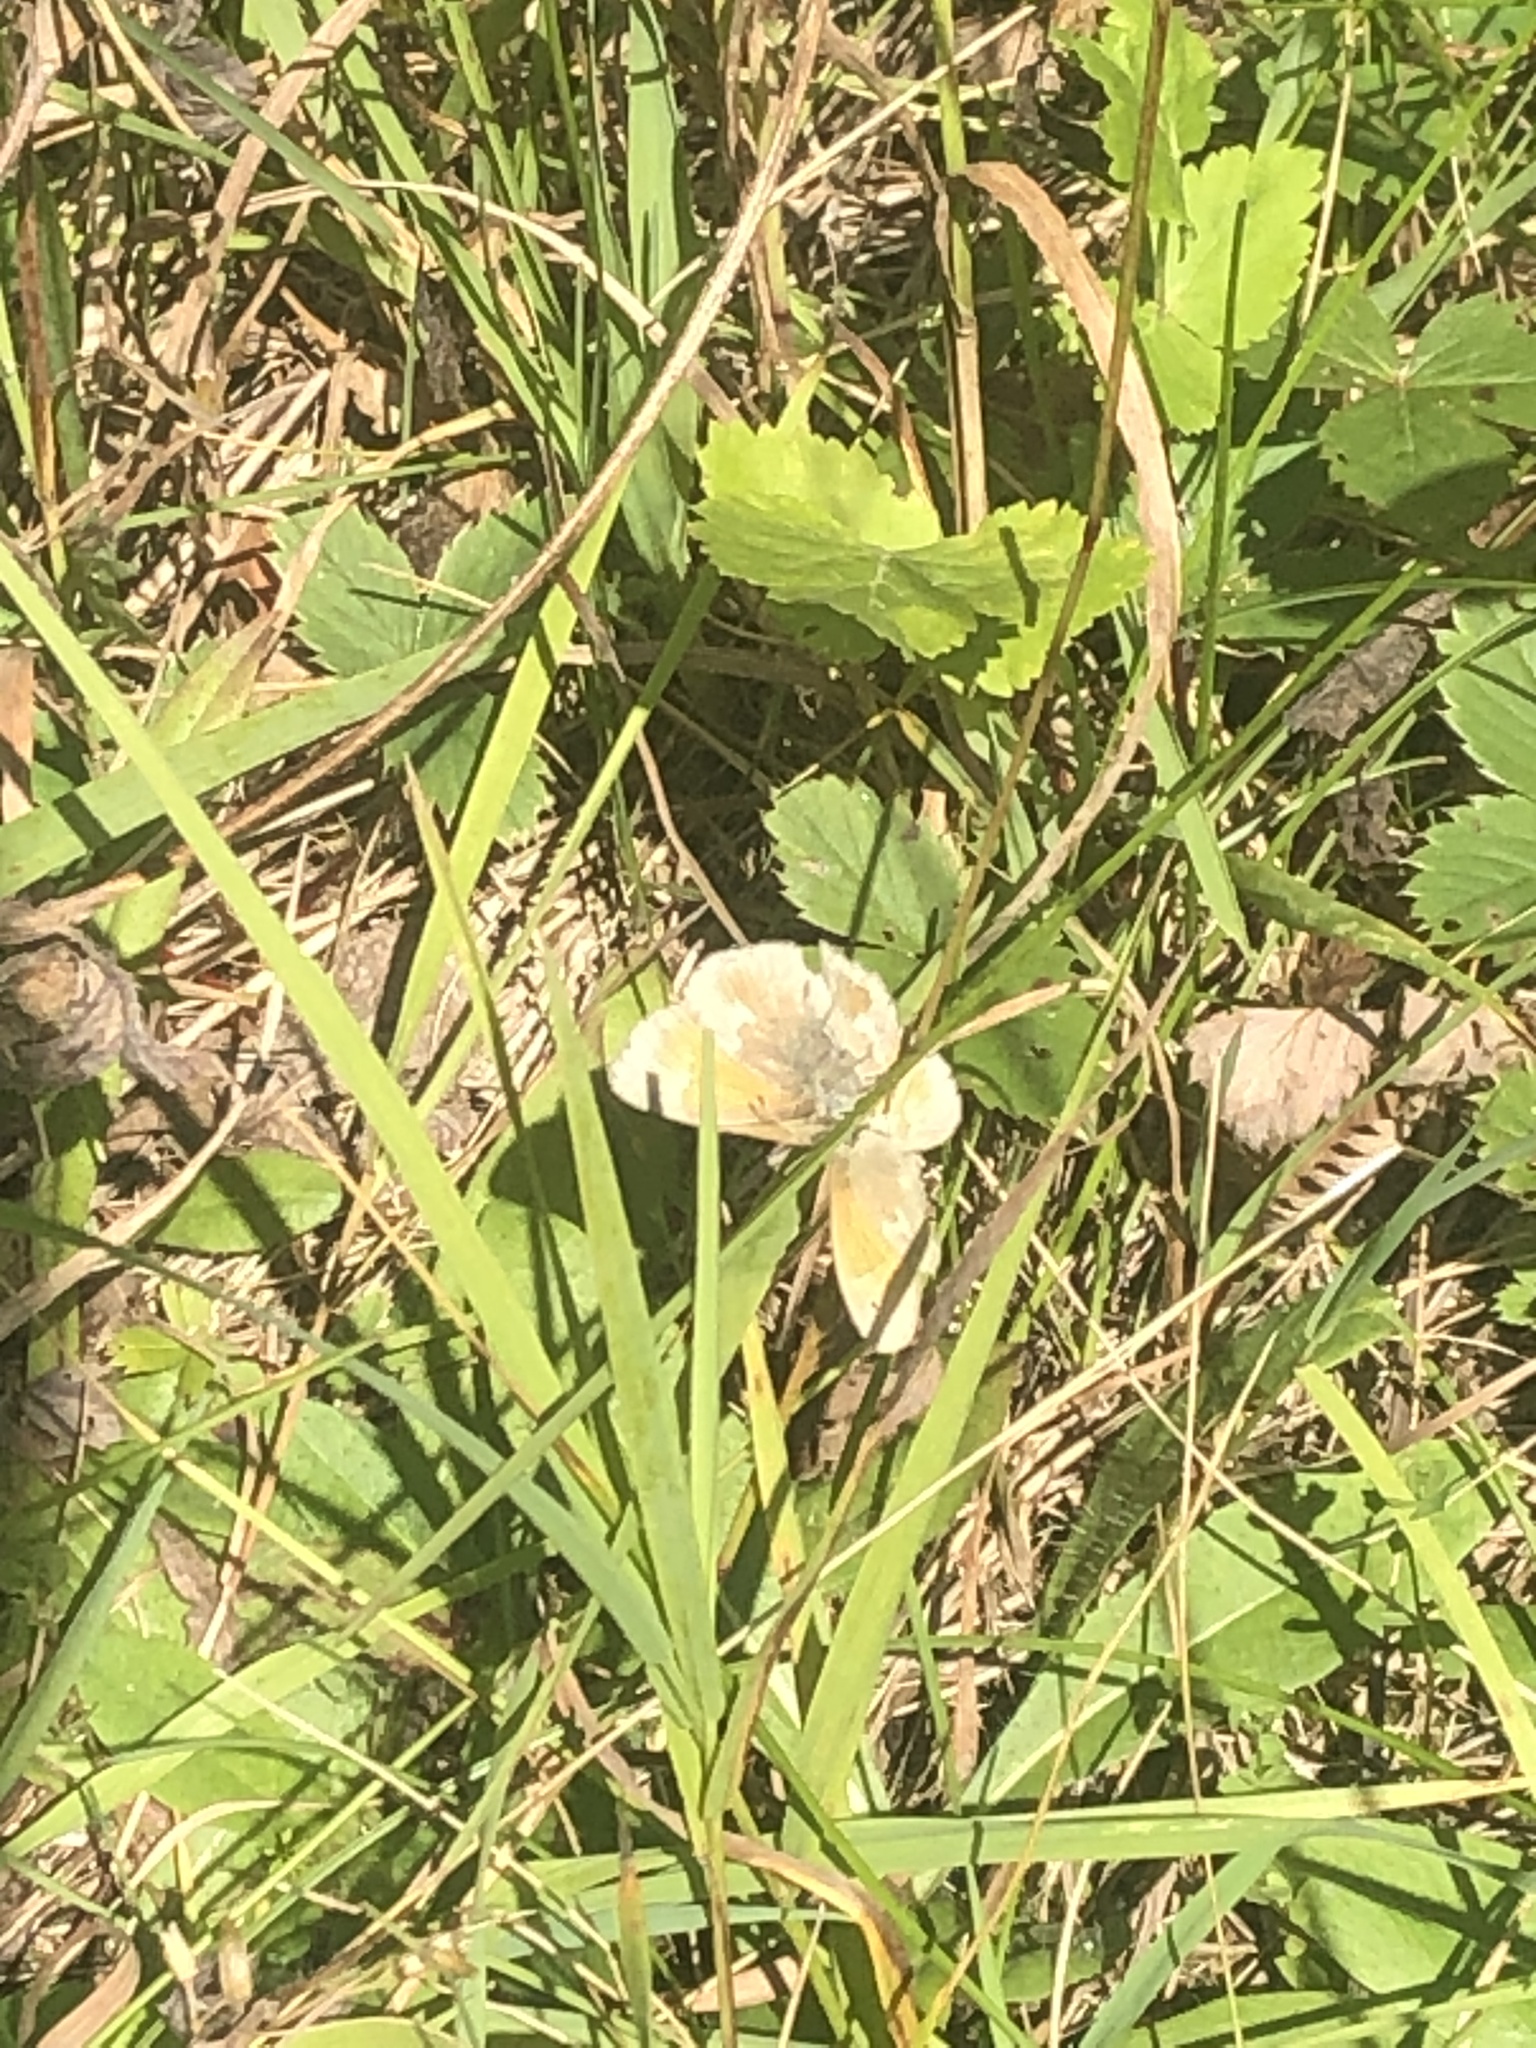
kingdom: Animalia
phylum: Arthropoda
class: Insecta
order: Lepidoptera
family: Nymphalidae
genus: Coenonympha
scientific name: Coenonympha california
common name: Common ringlet
